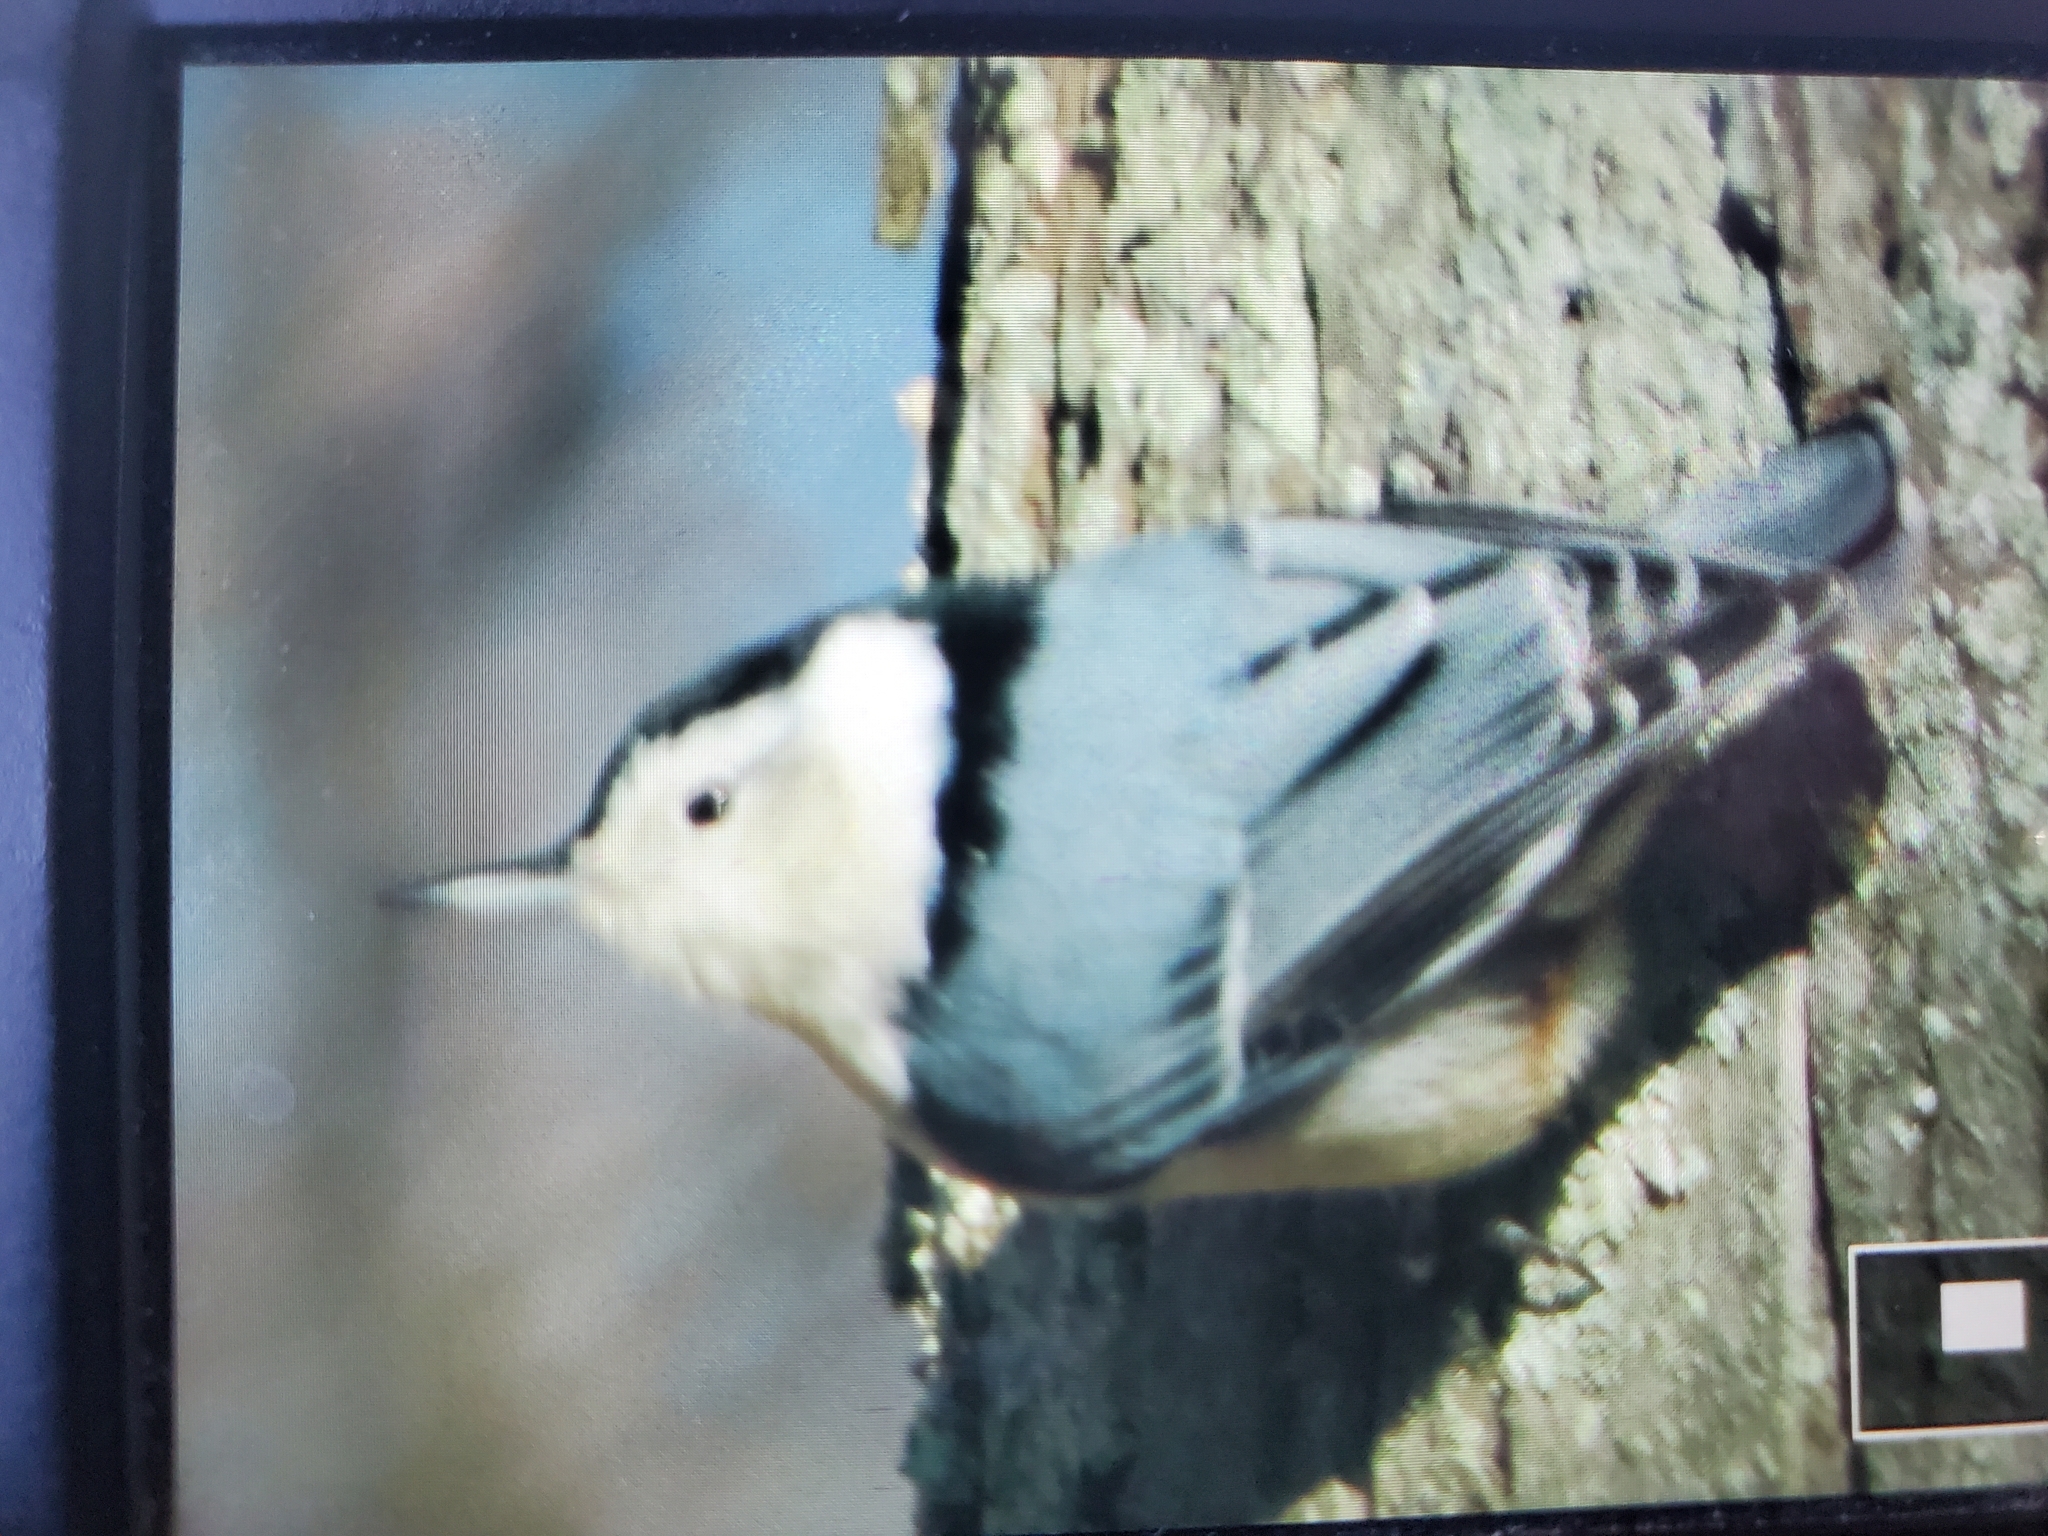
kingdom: Animalia
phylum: Chordata
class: Aves
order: Passeriformes
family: Sittidae
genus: Sitta
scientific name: Sitta carolinensis
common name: White-breasted nuthatch
